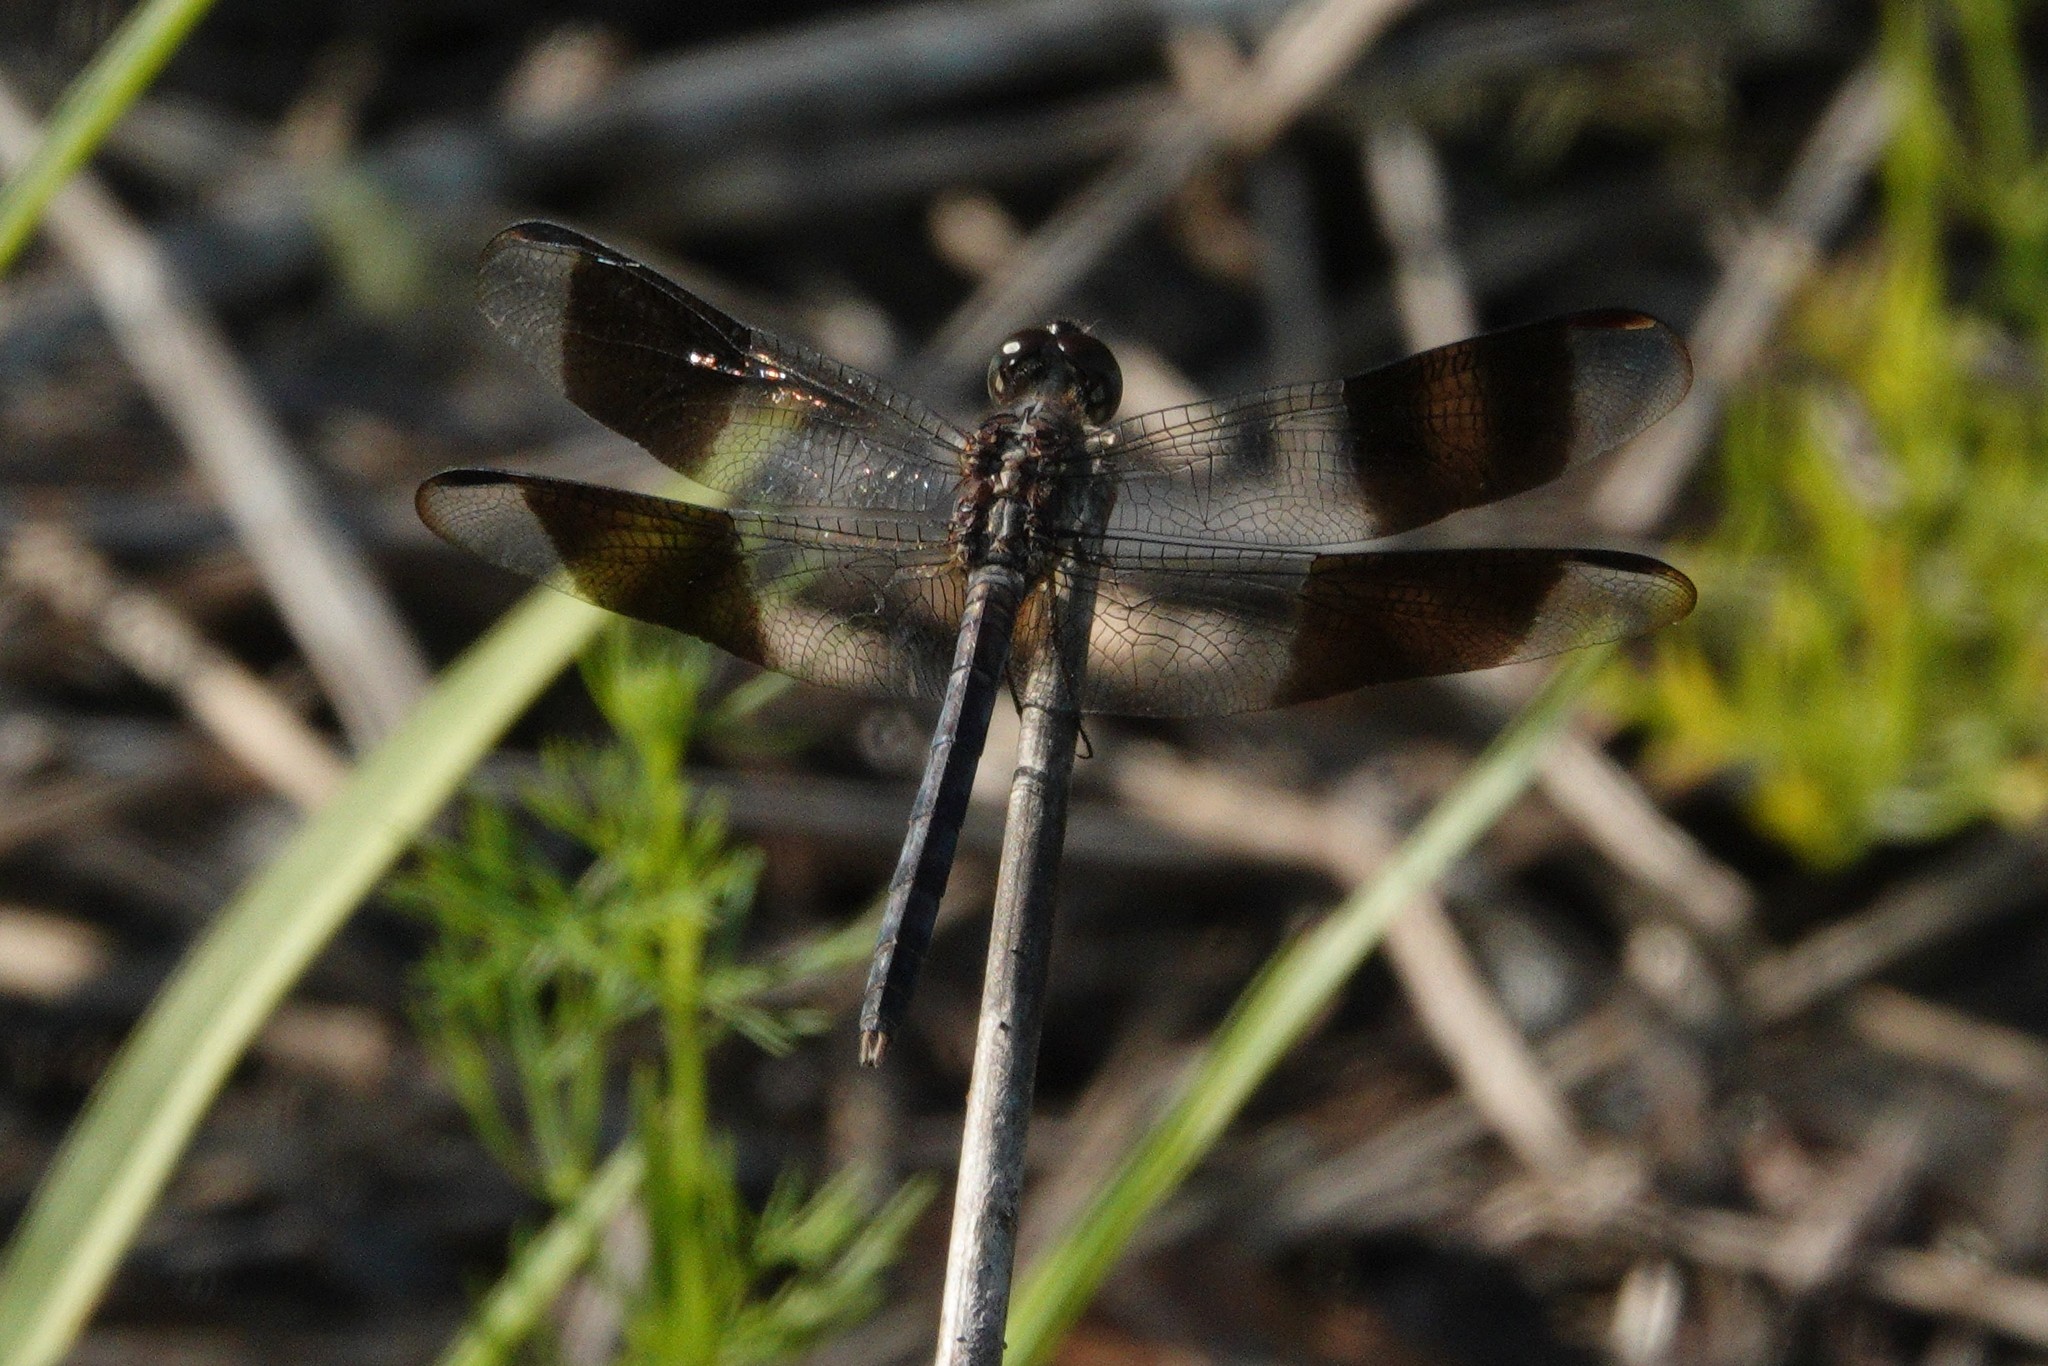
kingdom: Animalia
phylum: Arthropoda
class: Insecta
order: Odonata
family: Libellulidae
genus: Erythrodiplax
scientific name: Erythrodiplax umbrata
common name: Band-winged dragonlet
